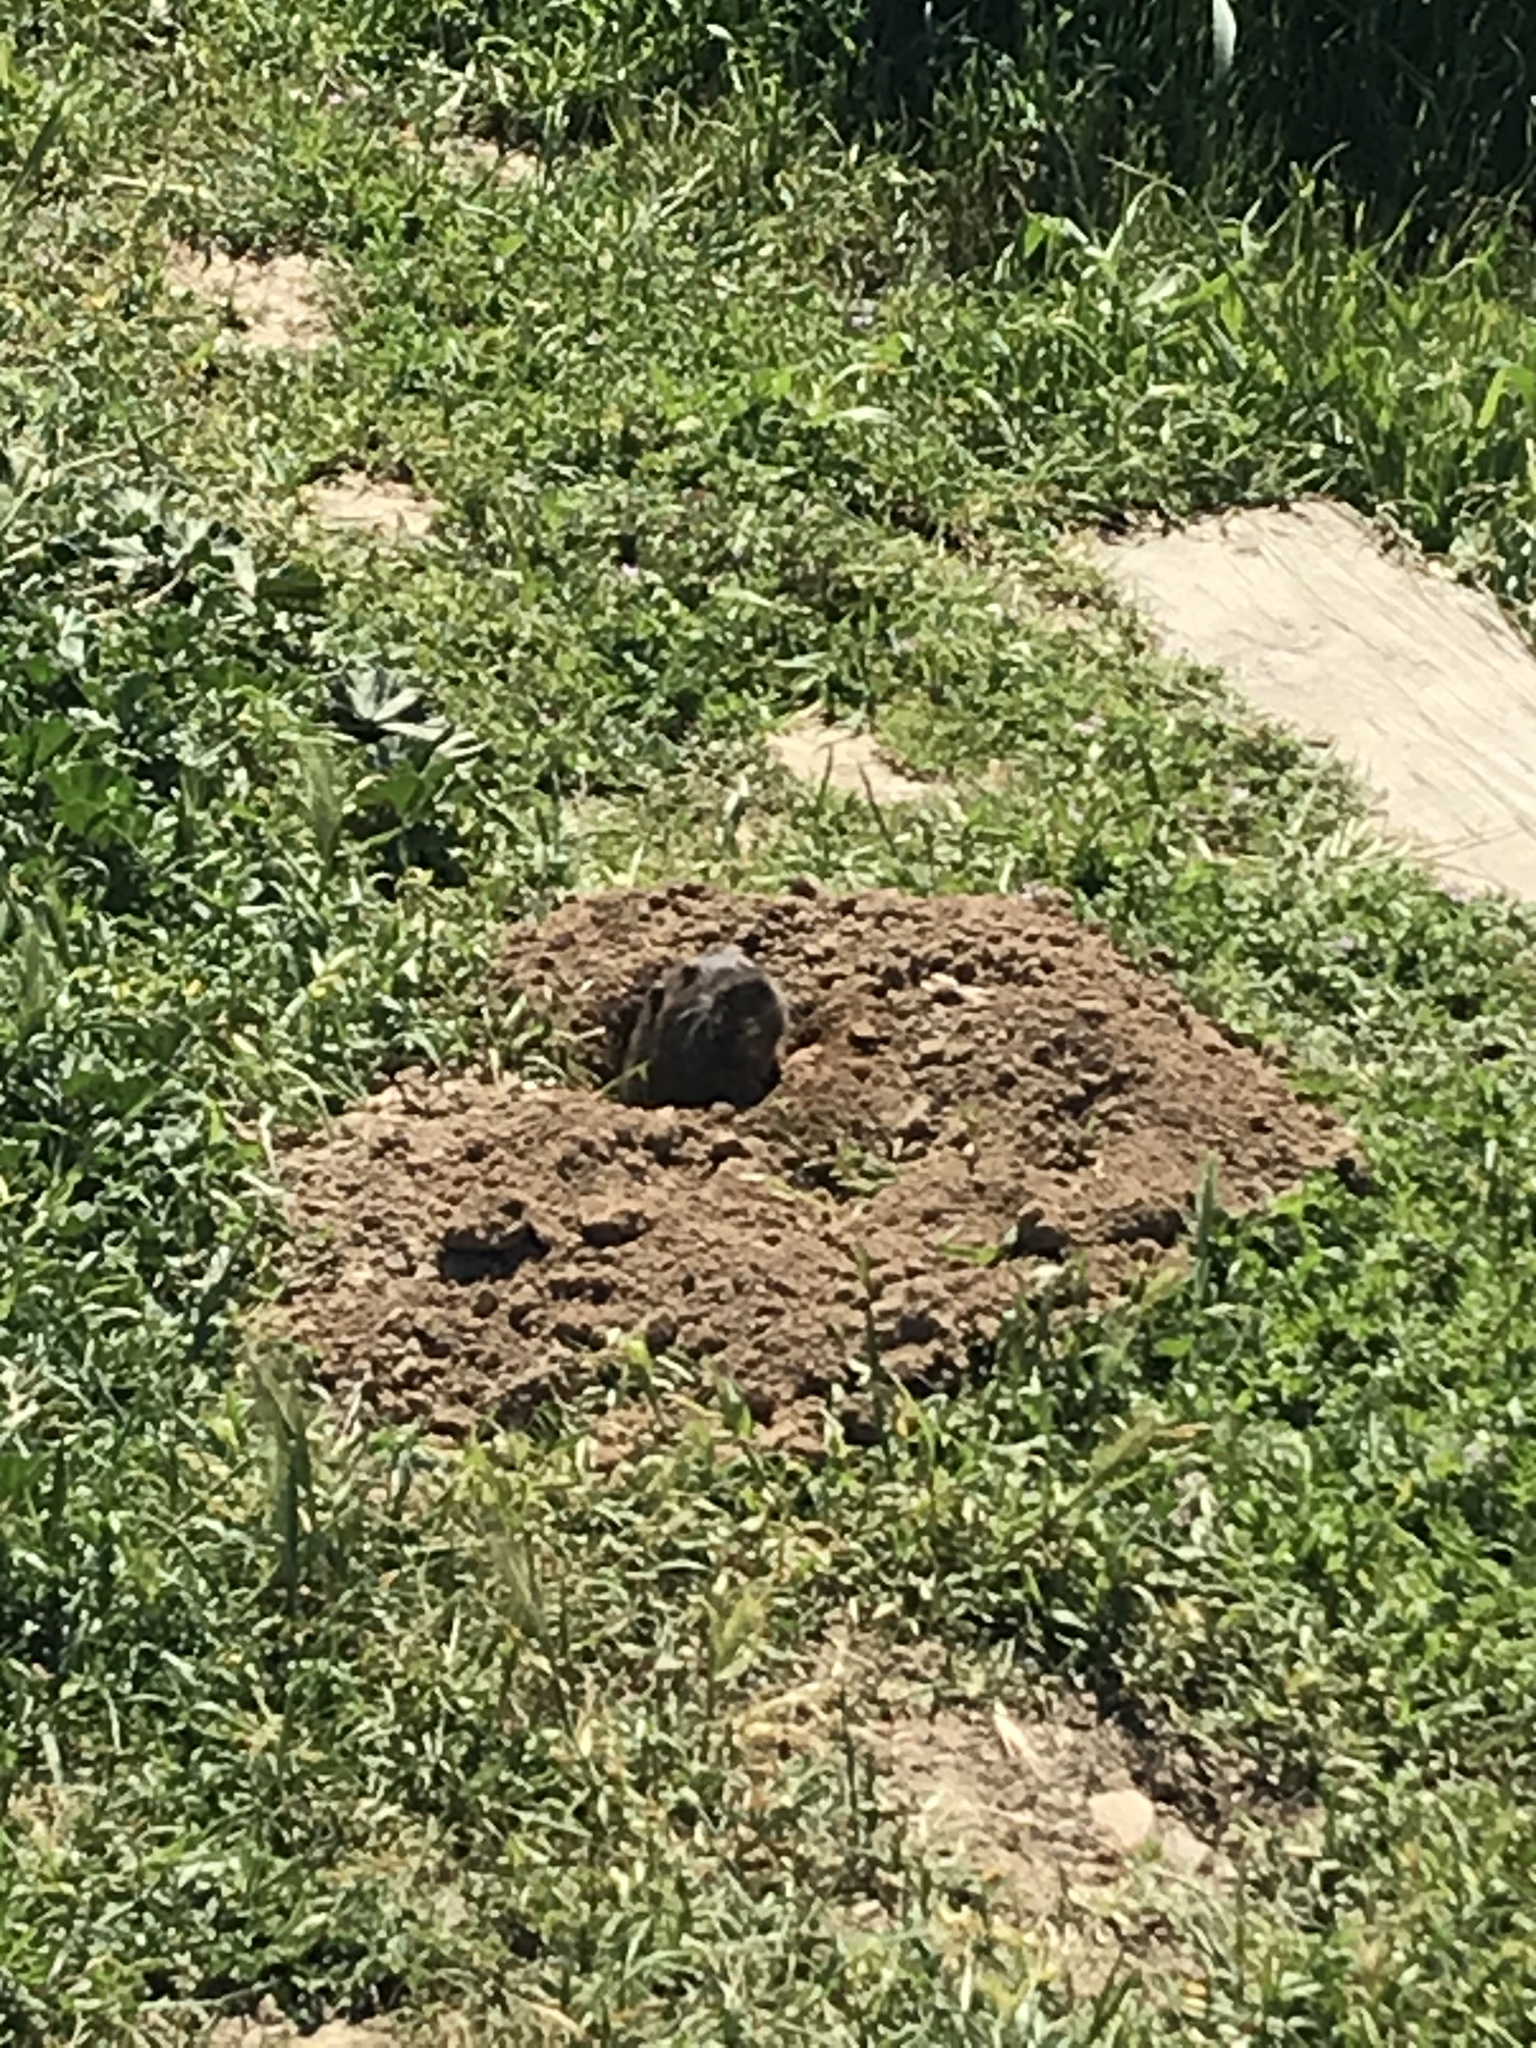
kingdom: Animalia
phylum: Chordata
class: Mammalia
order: Rodentia
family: Geomyidae
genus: Thomomys
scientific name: Thomomys bottae
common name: Botta's pocket gopher
